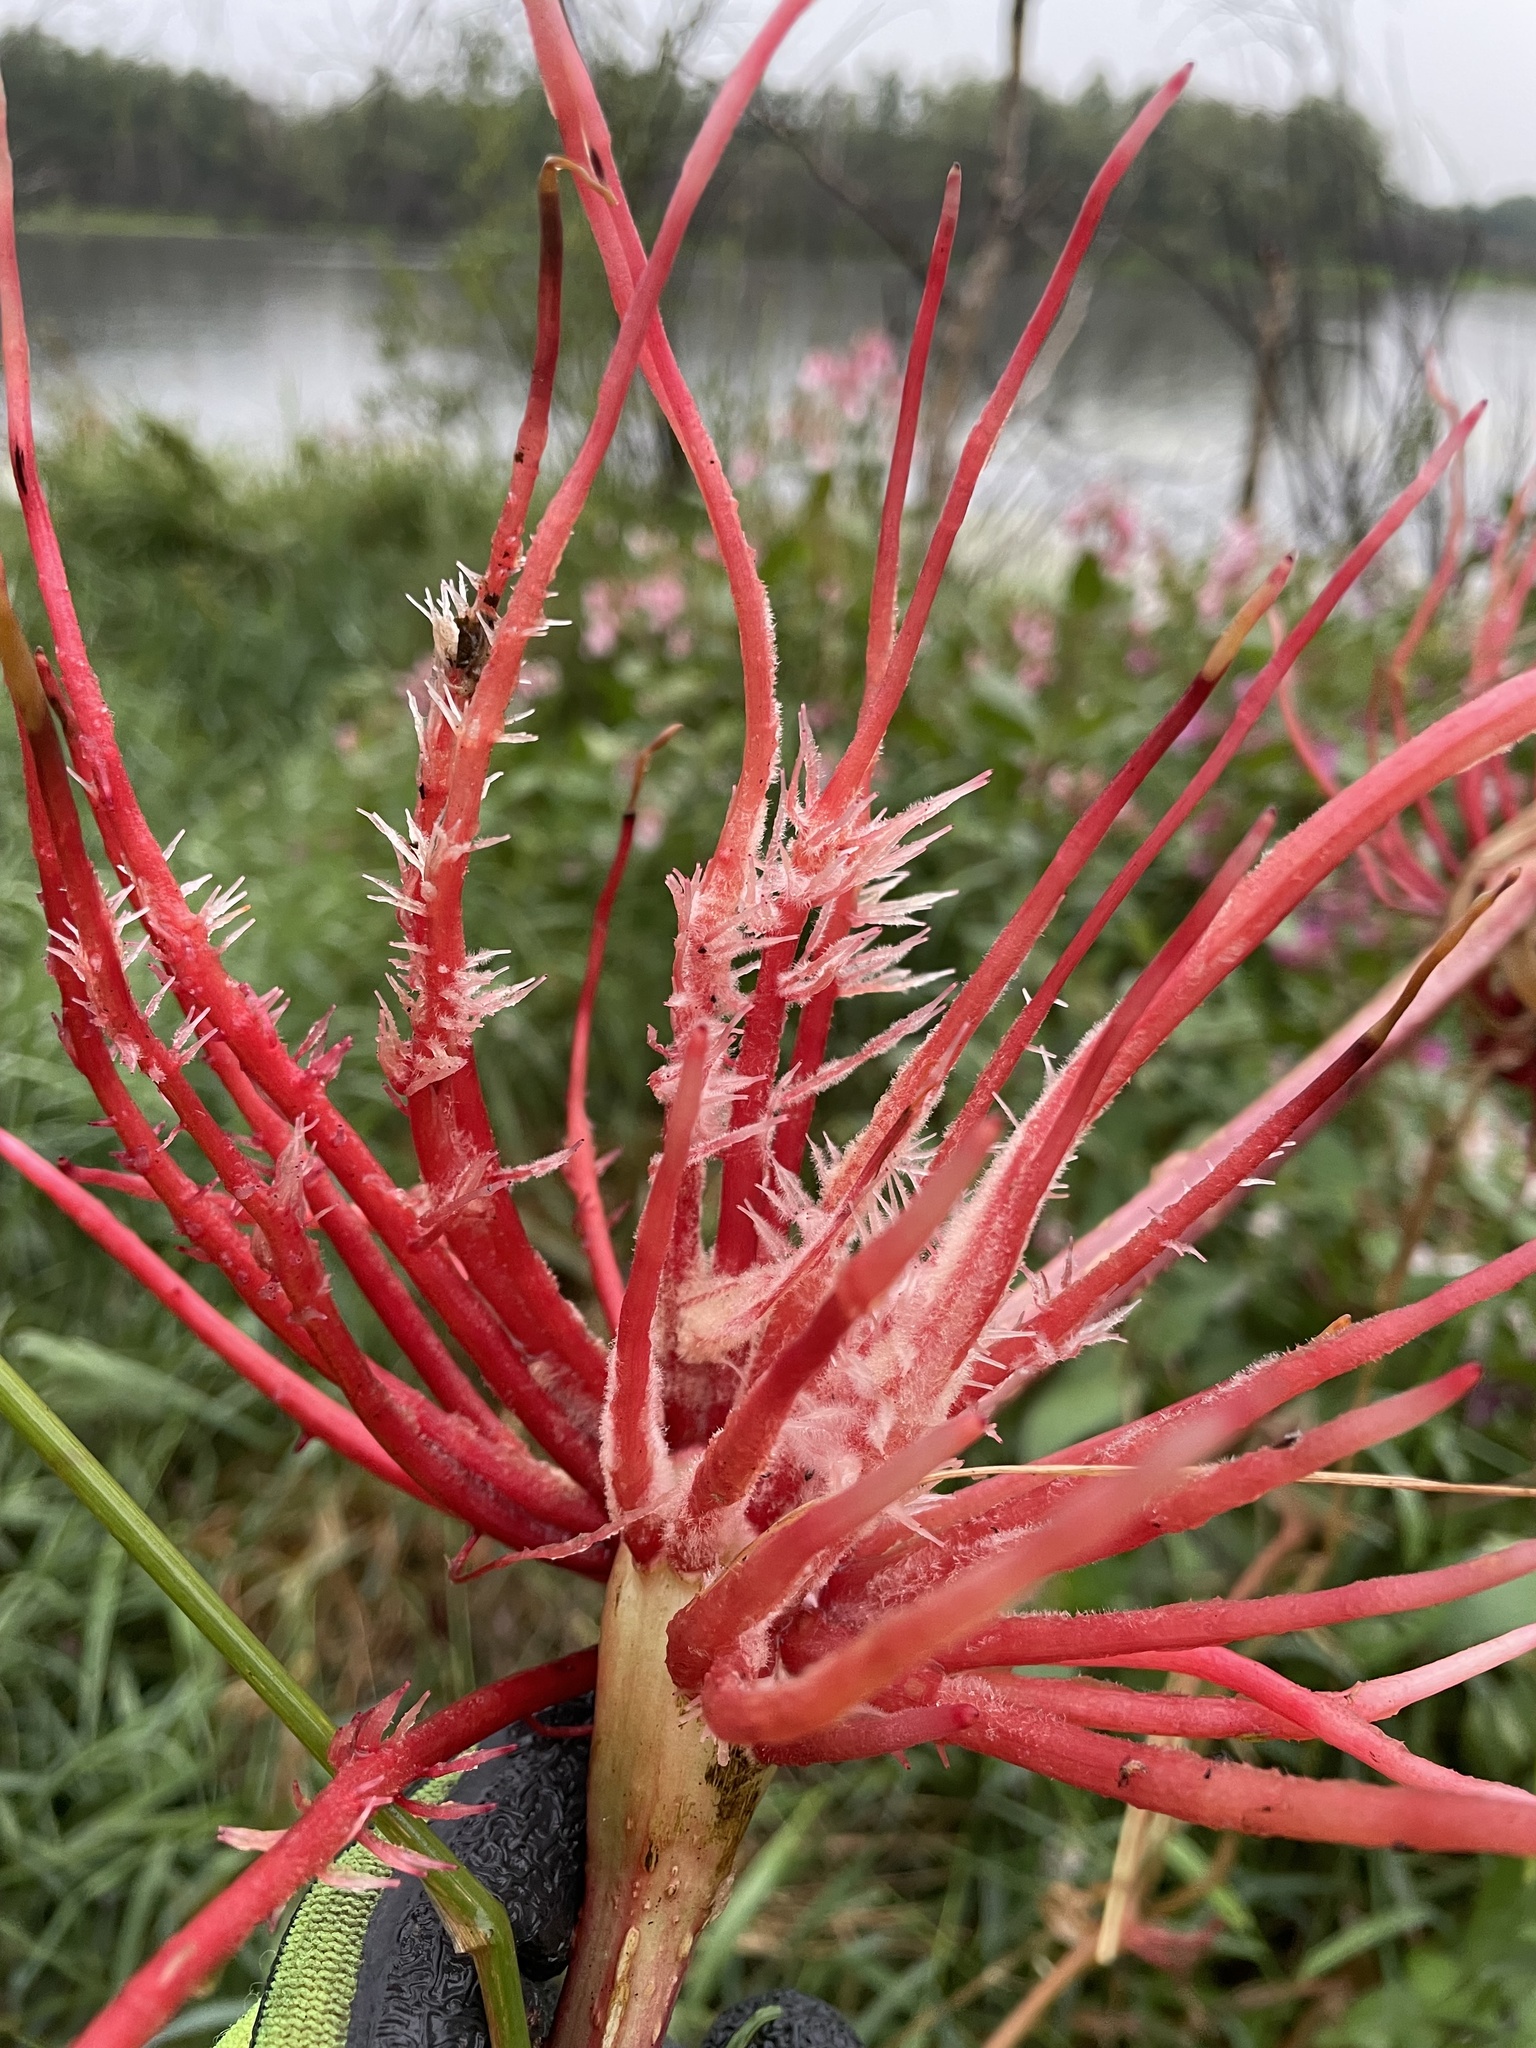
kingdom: Plantae
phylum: Tracheophyta
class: Magnoliopsida
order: Ericales
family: Balsaminaceae
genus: Impatiens
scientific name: Impatiens glandulifera
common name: Himalayan balsam
